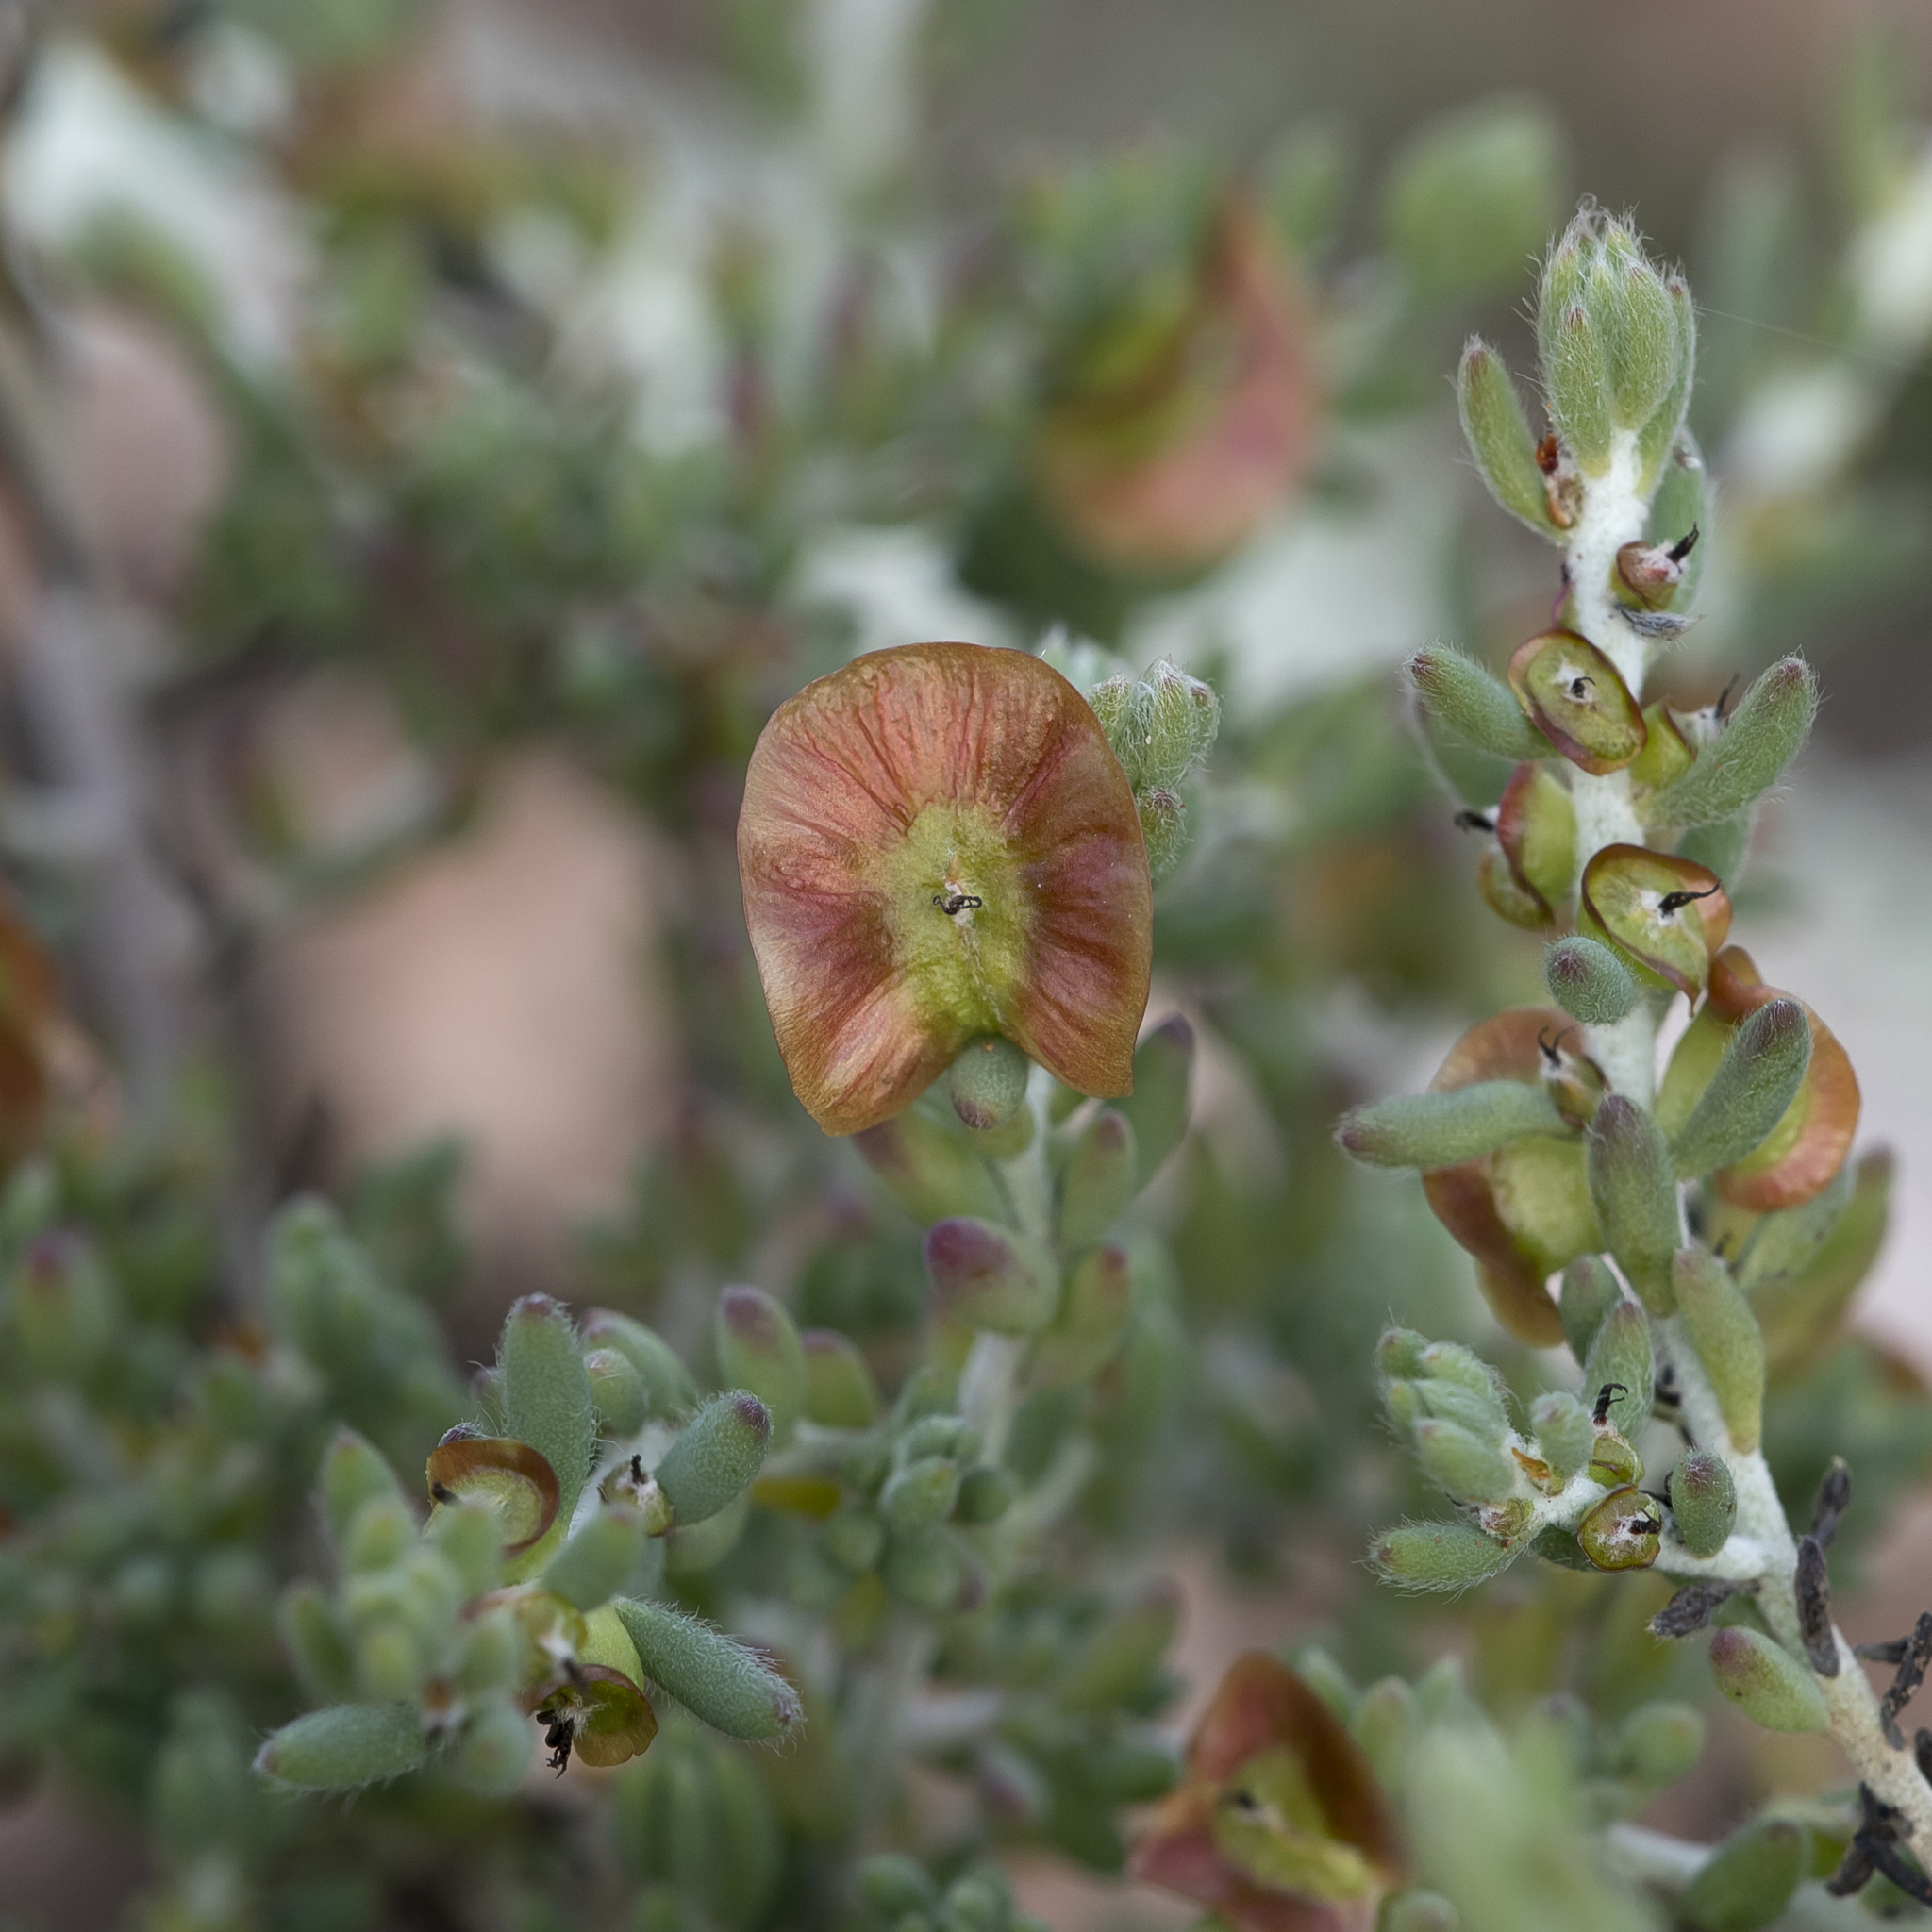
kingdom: Plantae
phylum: Tracheophyta
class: Magnoliopsida
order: Caryophyllales
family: Amaranthaceae
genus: Maireana
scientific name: Maireana turbinata
